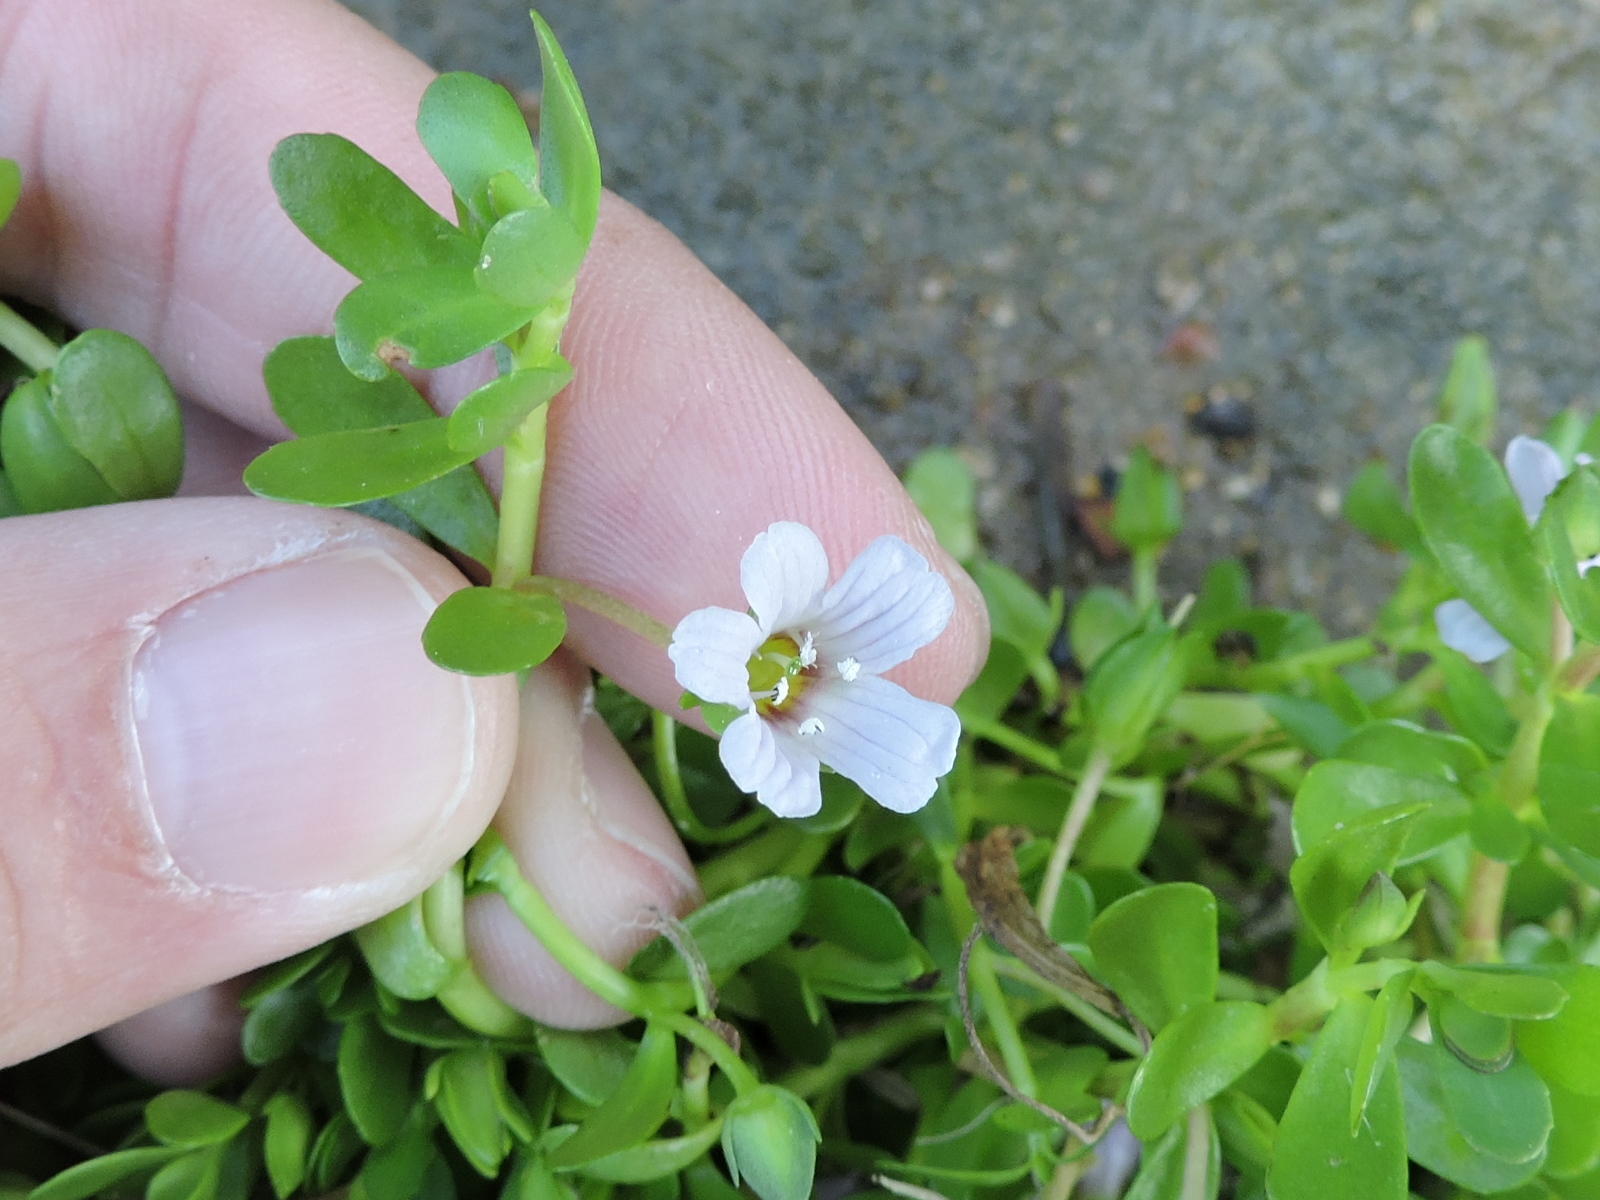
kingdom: Plantae
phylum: Tracheophyta
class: Magnoliopsida
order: Lamiales
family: Plantaginaceae
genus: Bacopa
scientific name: Bacopa monnieri
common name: Indian-pennywort
